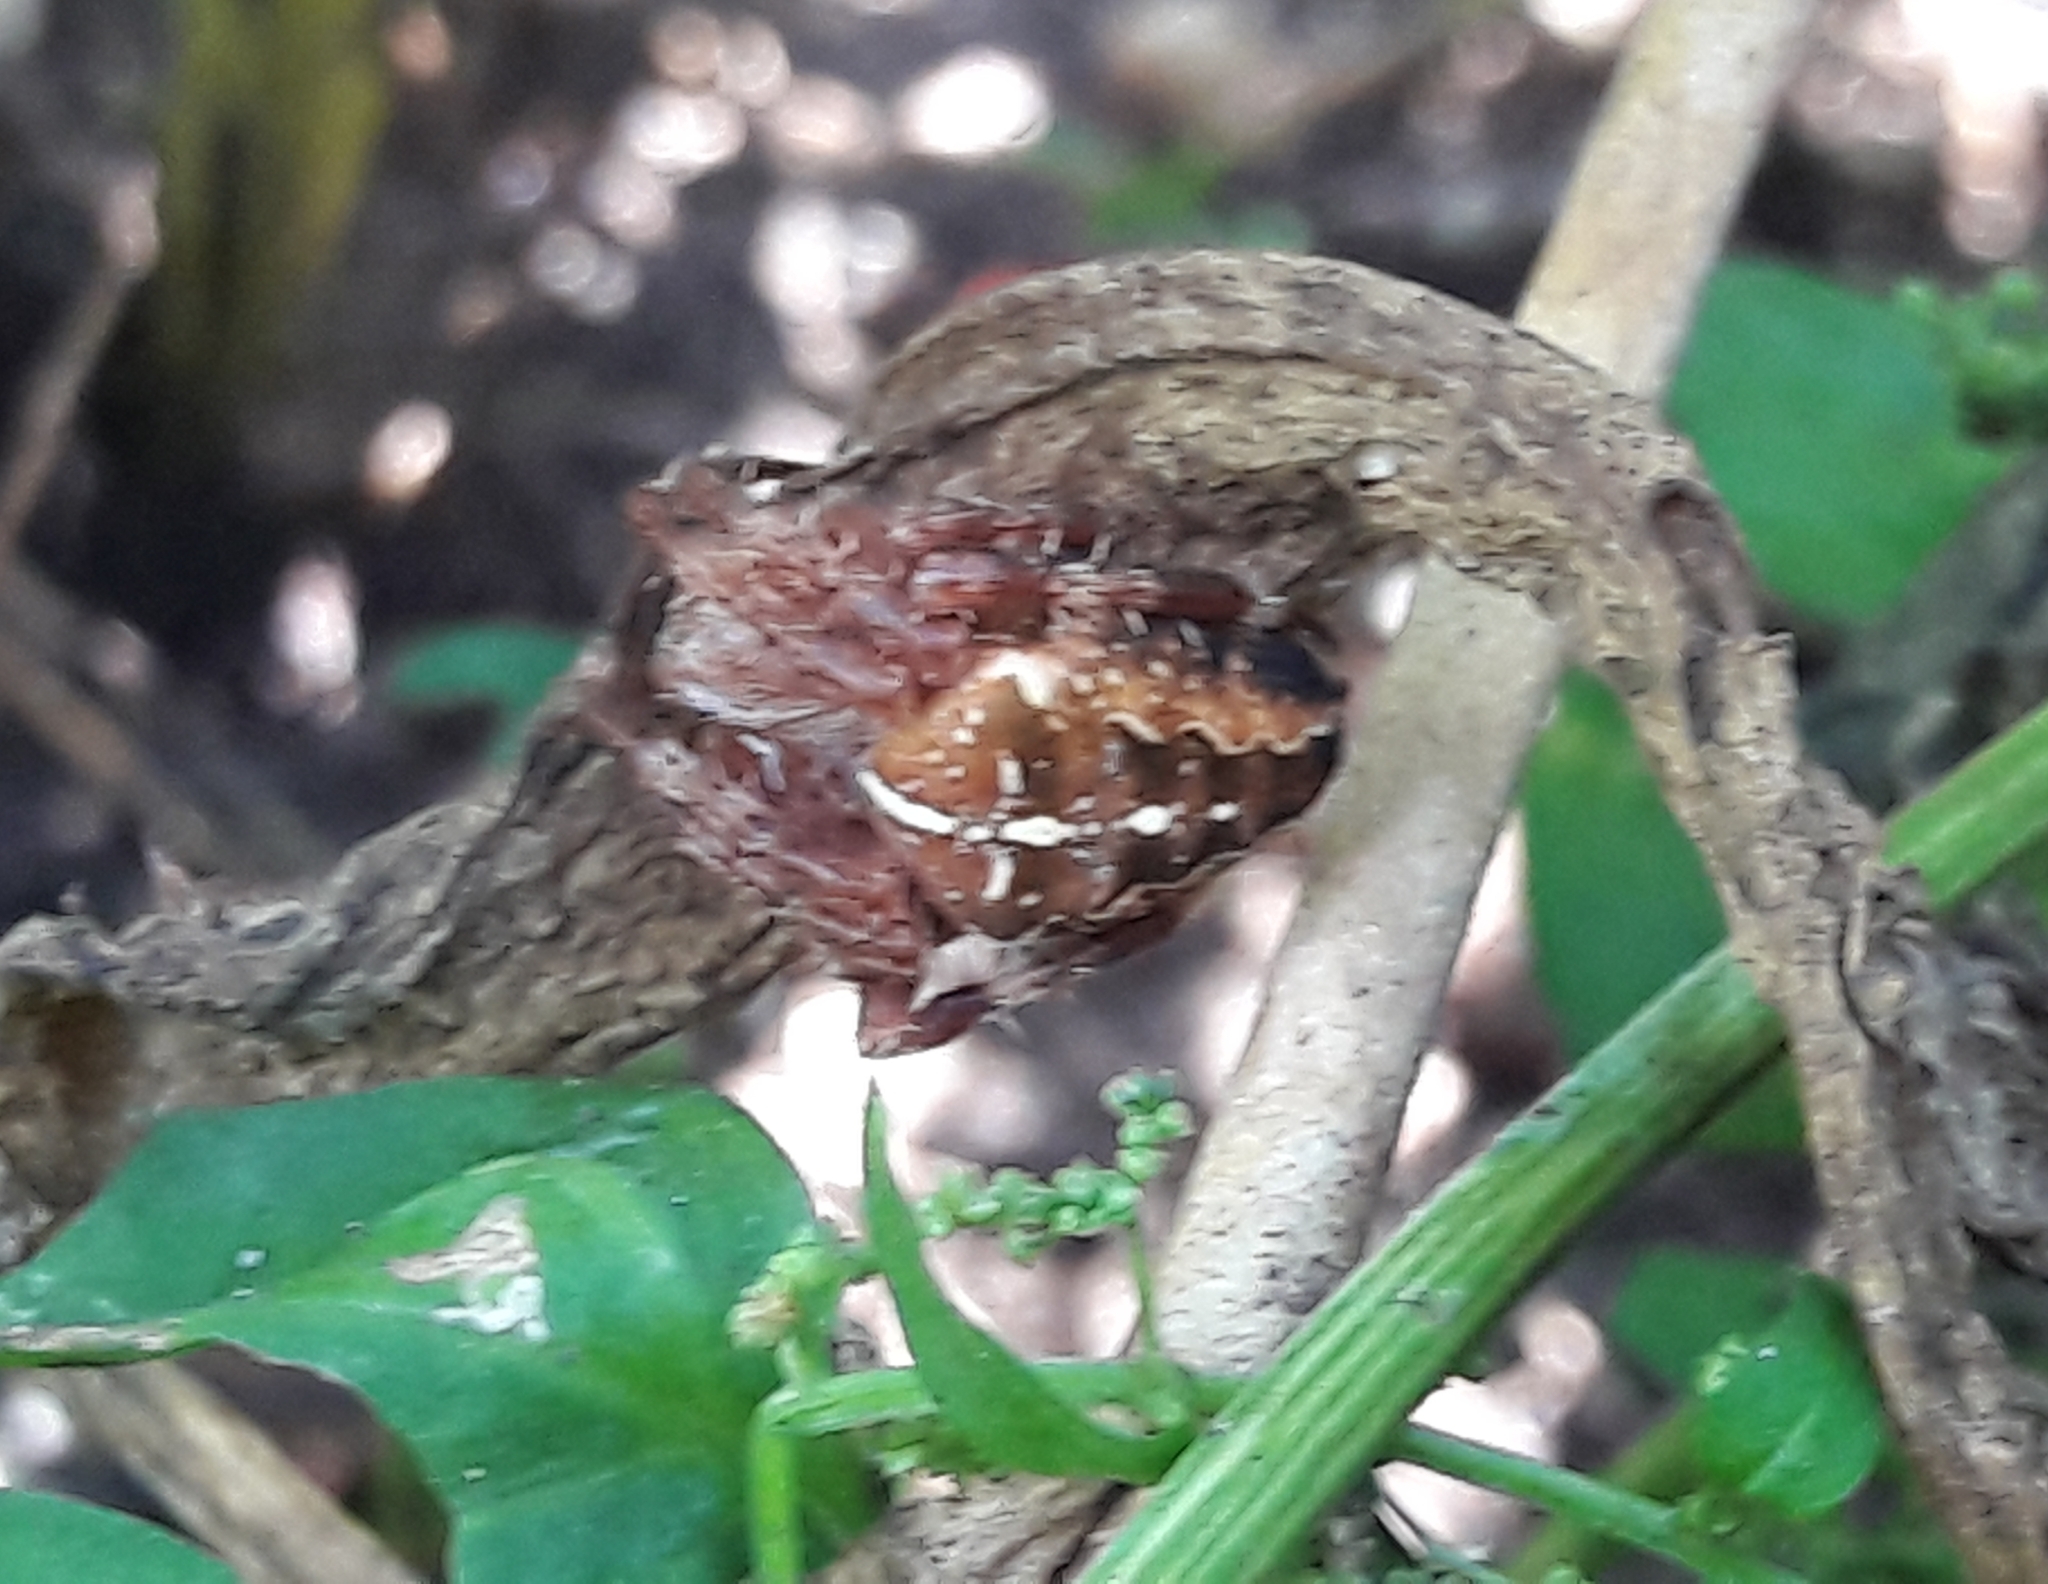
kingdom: Animalia
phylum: Arthropoda
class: Arachnida
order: Araneae
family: Araneidae
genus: Araneus
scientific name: Araneus diadematus
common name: Cross orbweaver
